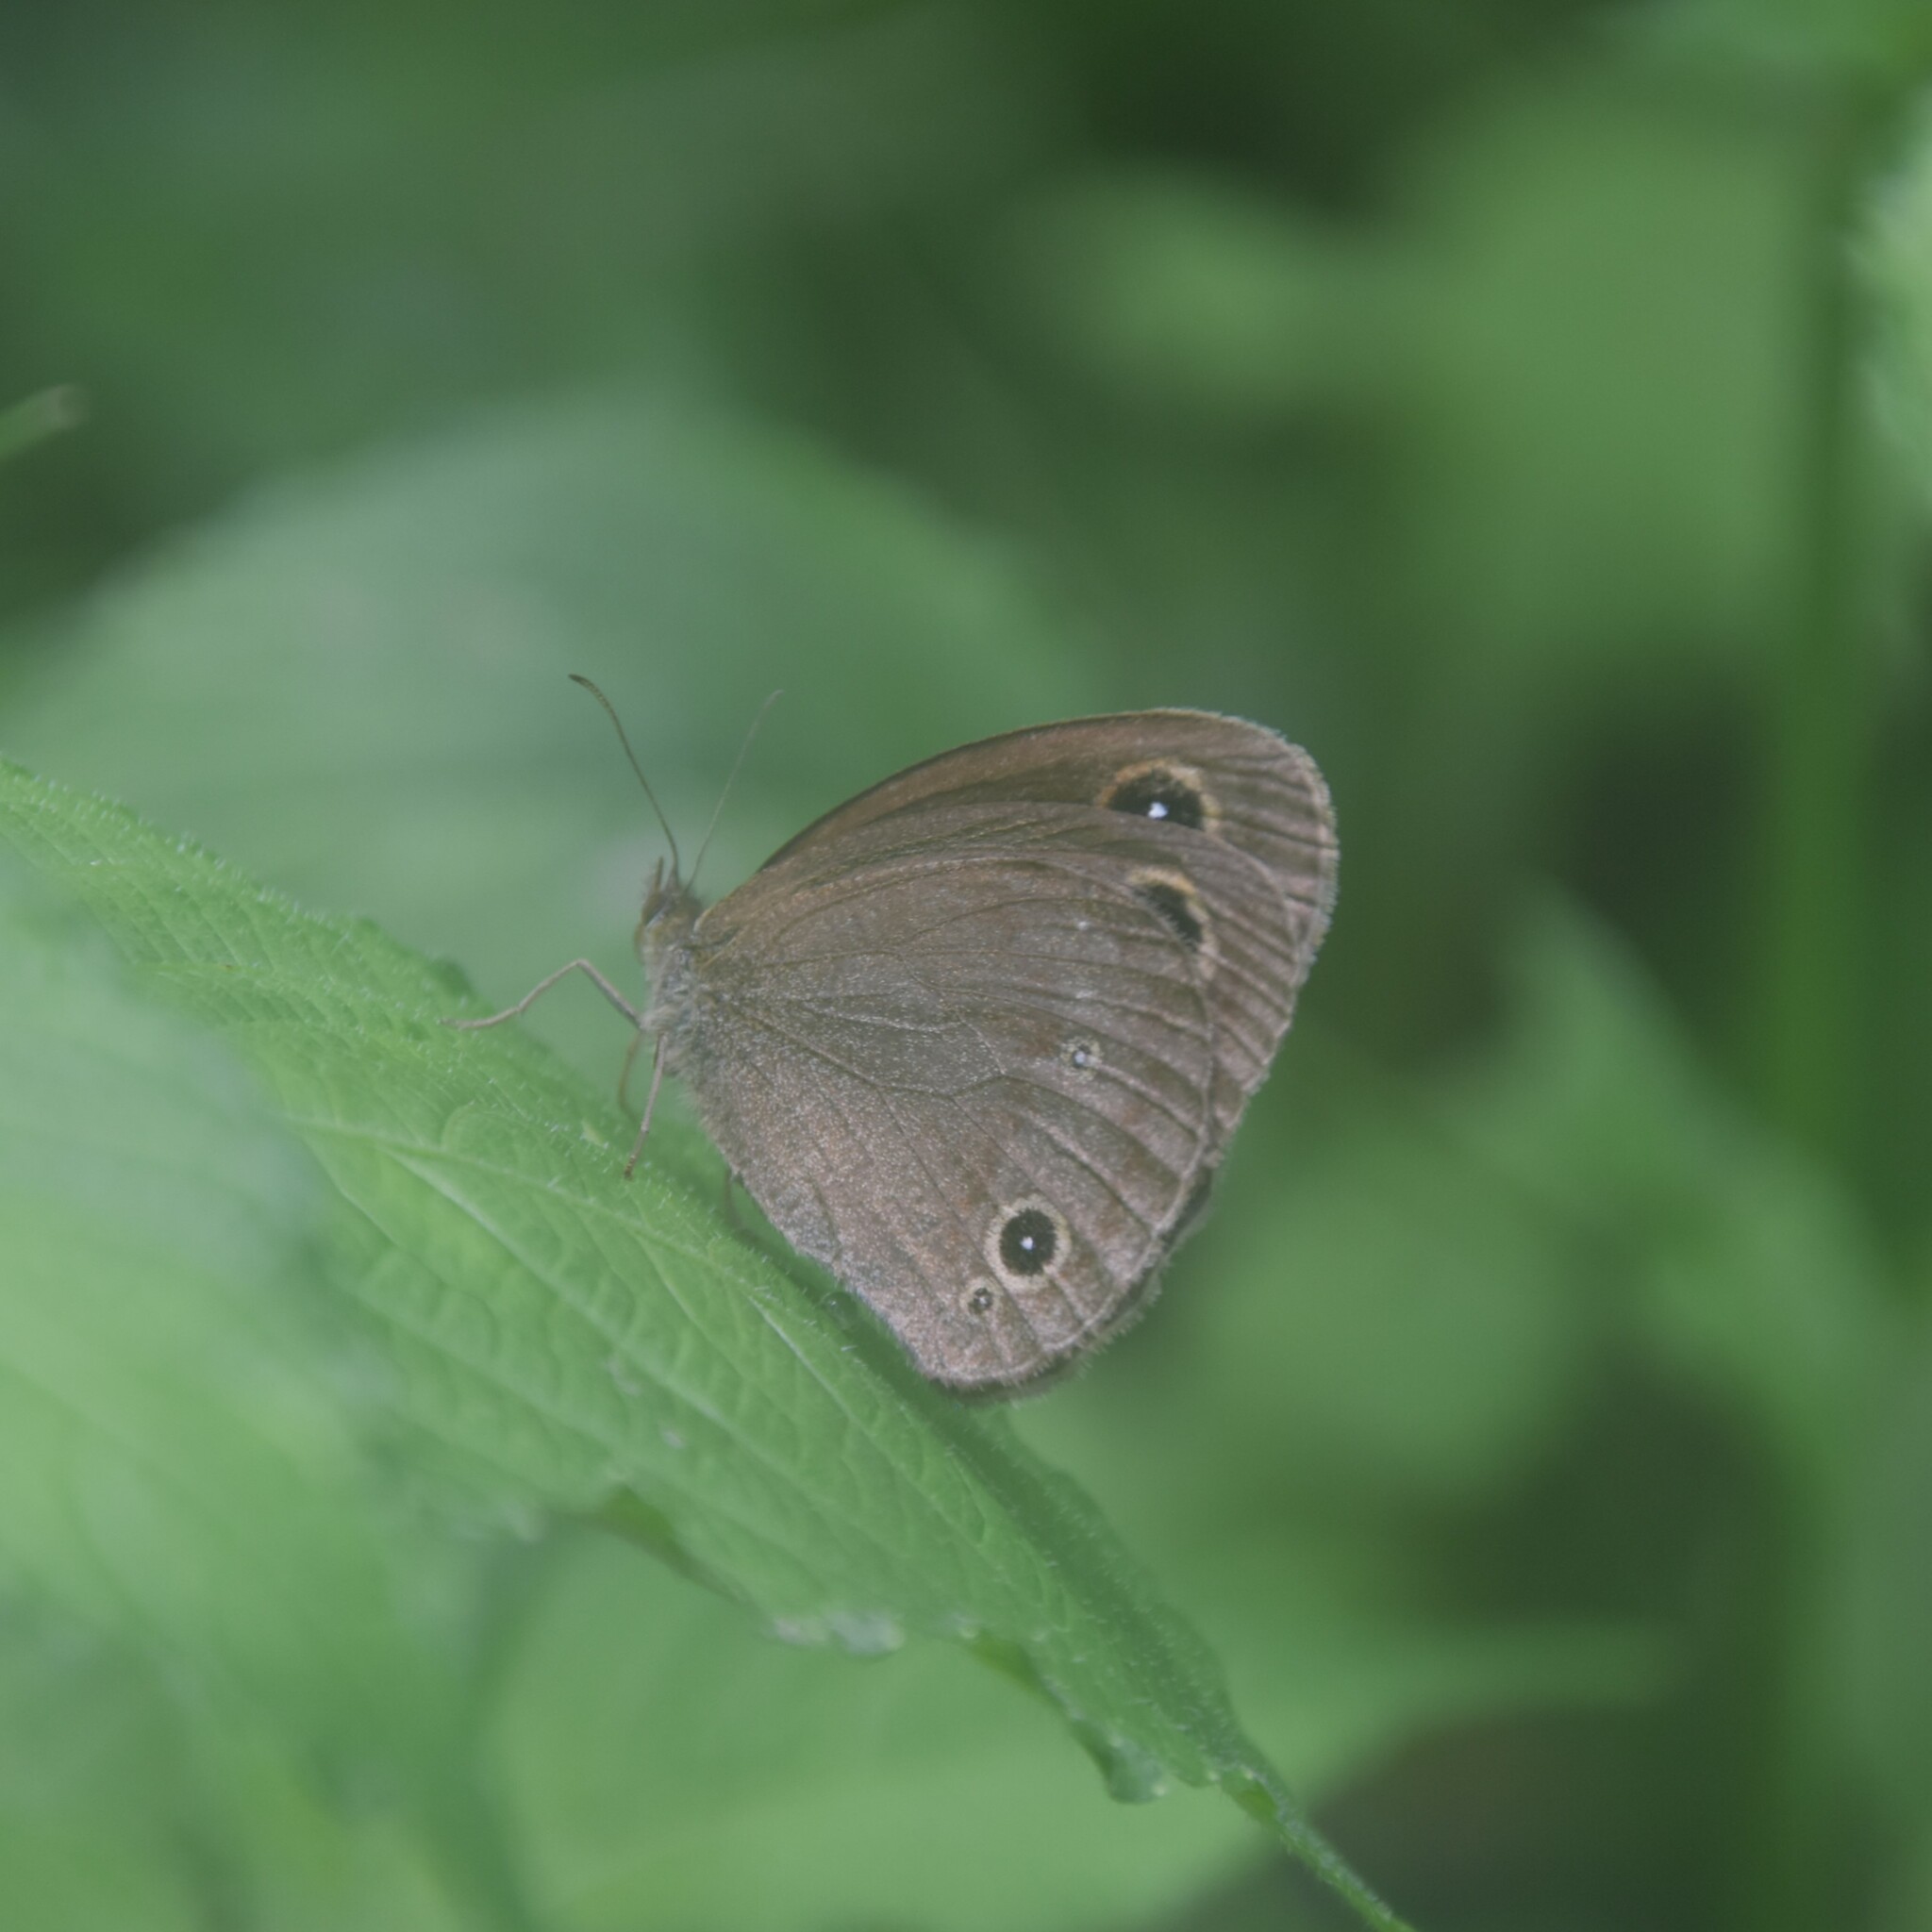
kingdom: Animalia
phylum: Arthropoda
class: Insecta
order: Lepidoptera
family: Nymphalidae
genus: Callerebia
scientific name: Callerebia nirmala
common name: Common argus
